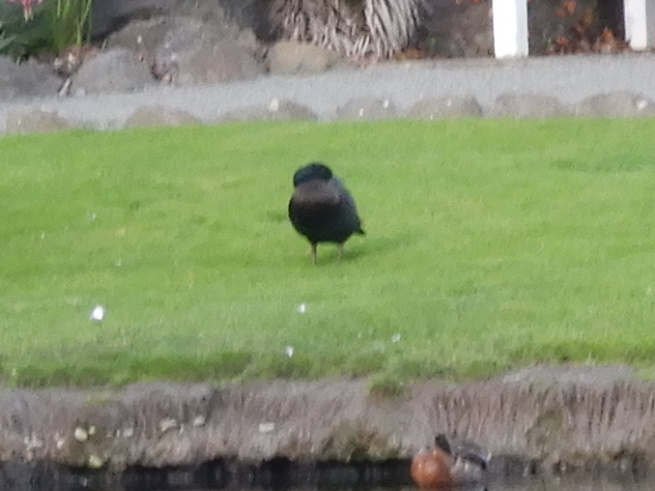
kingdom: Animalia
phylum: Chordata
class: Aves
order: Anseriformes
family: Anatidae
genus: Tadorna
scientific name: Tadorna variegata
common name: Paradise shelduck
